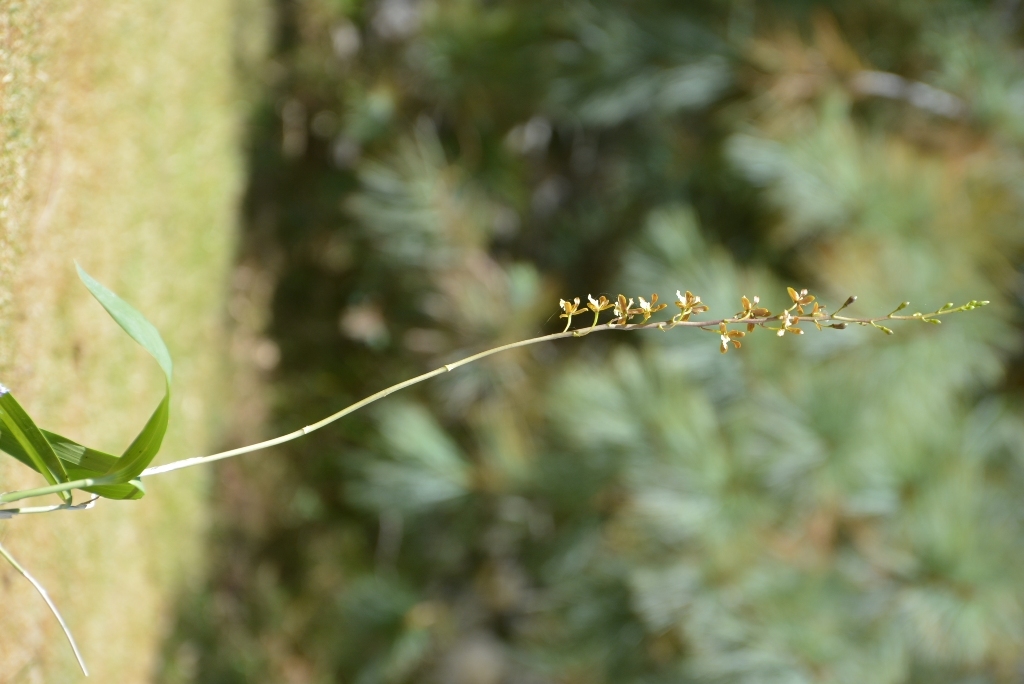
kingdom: Plantae
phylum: Tracheophyta
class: Liliopsida
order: Asparagales
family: Orchidaceae
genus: Prosthechea
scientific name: Prosthechea varicosa
